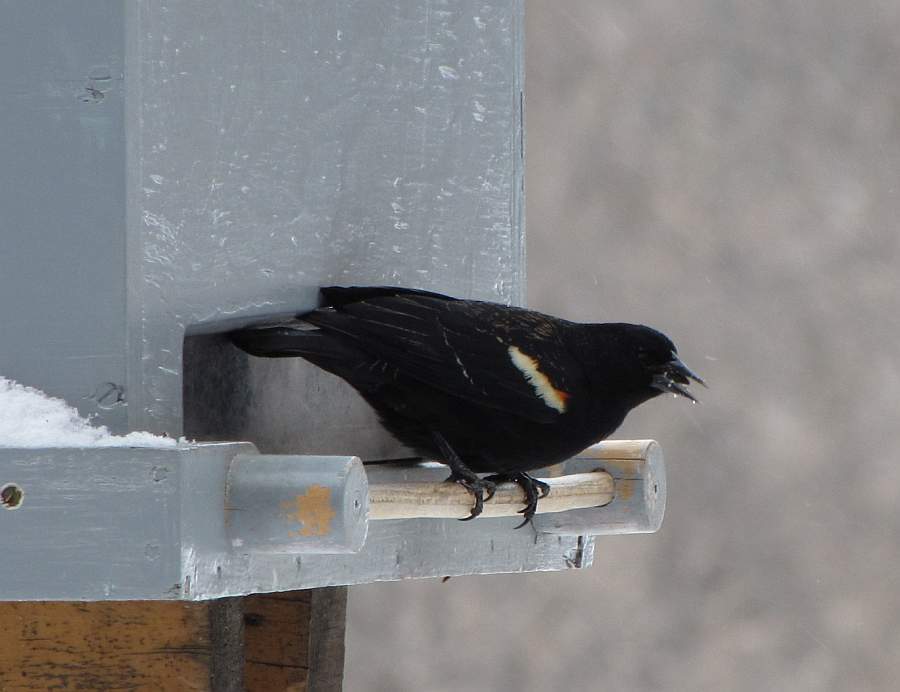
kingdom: Animalia
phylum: Chordata
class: Aves
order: Passeriformes
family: Icteridae
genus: Agelaius
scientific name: Agelaius phoeniceus
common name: Red-winged blackbird
